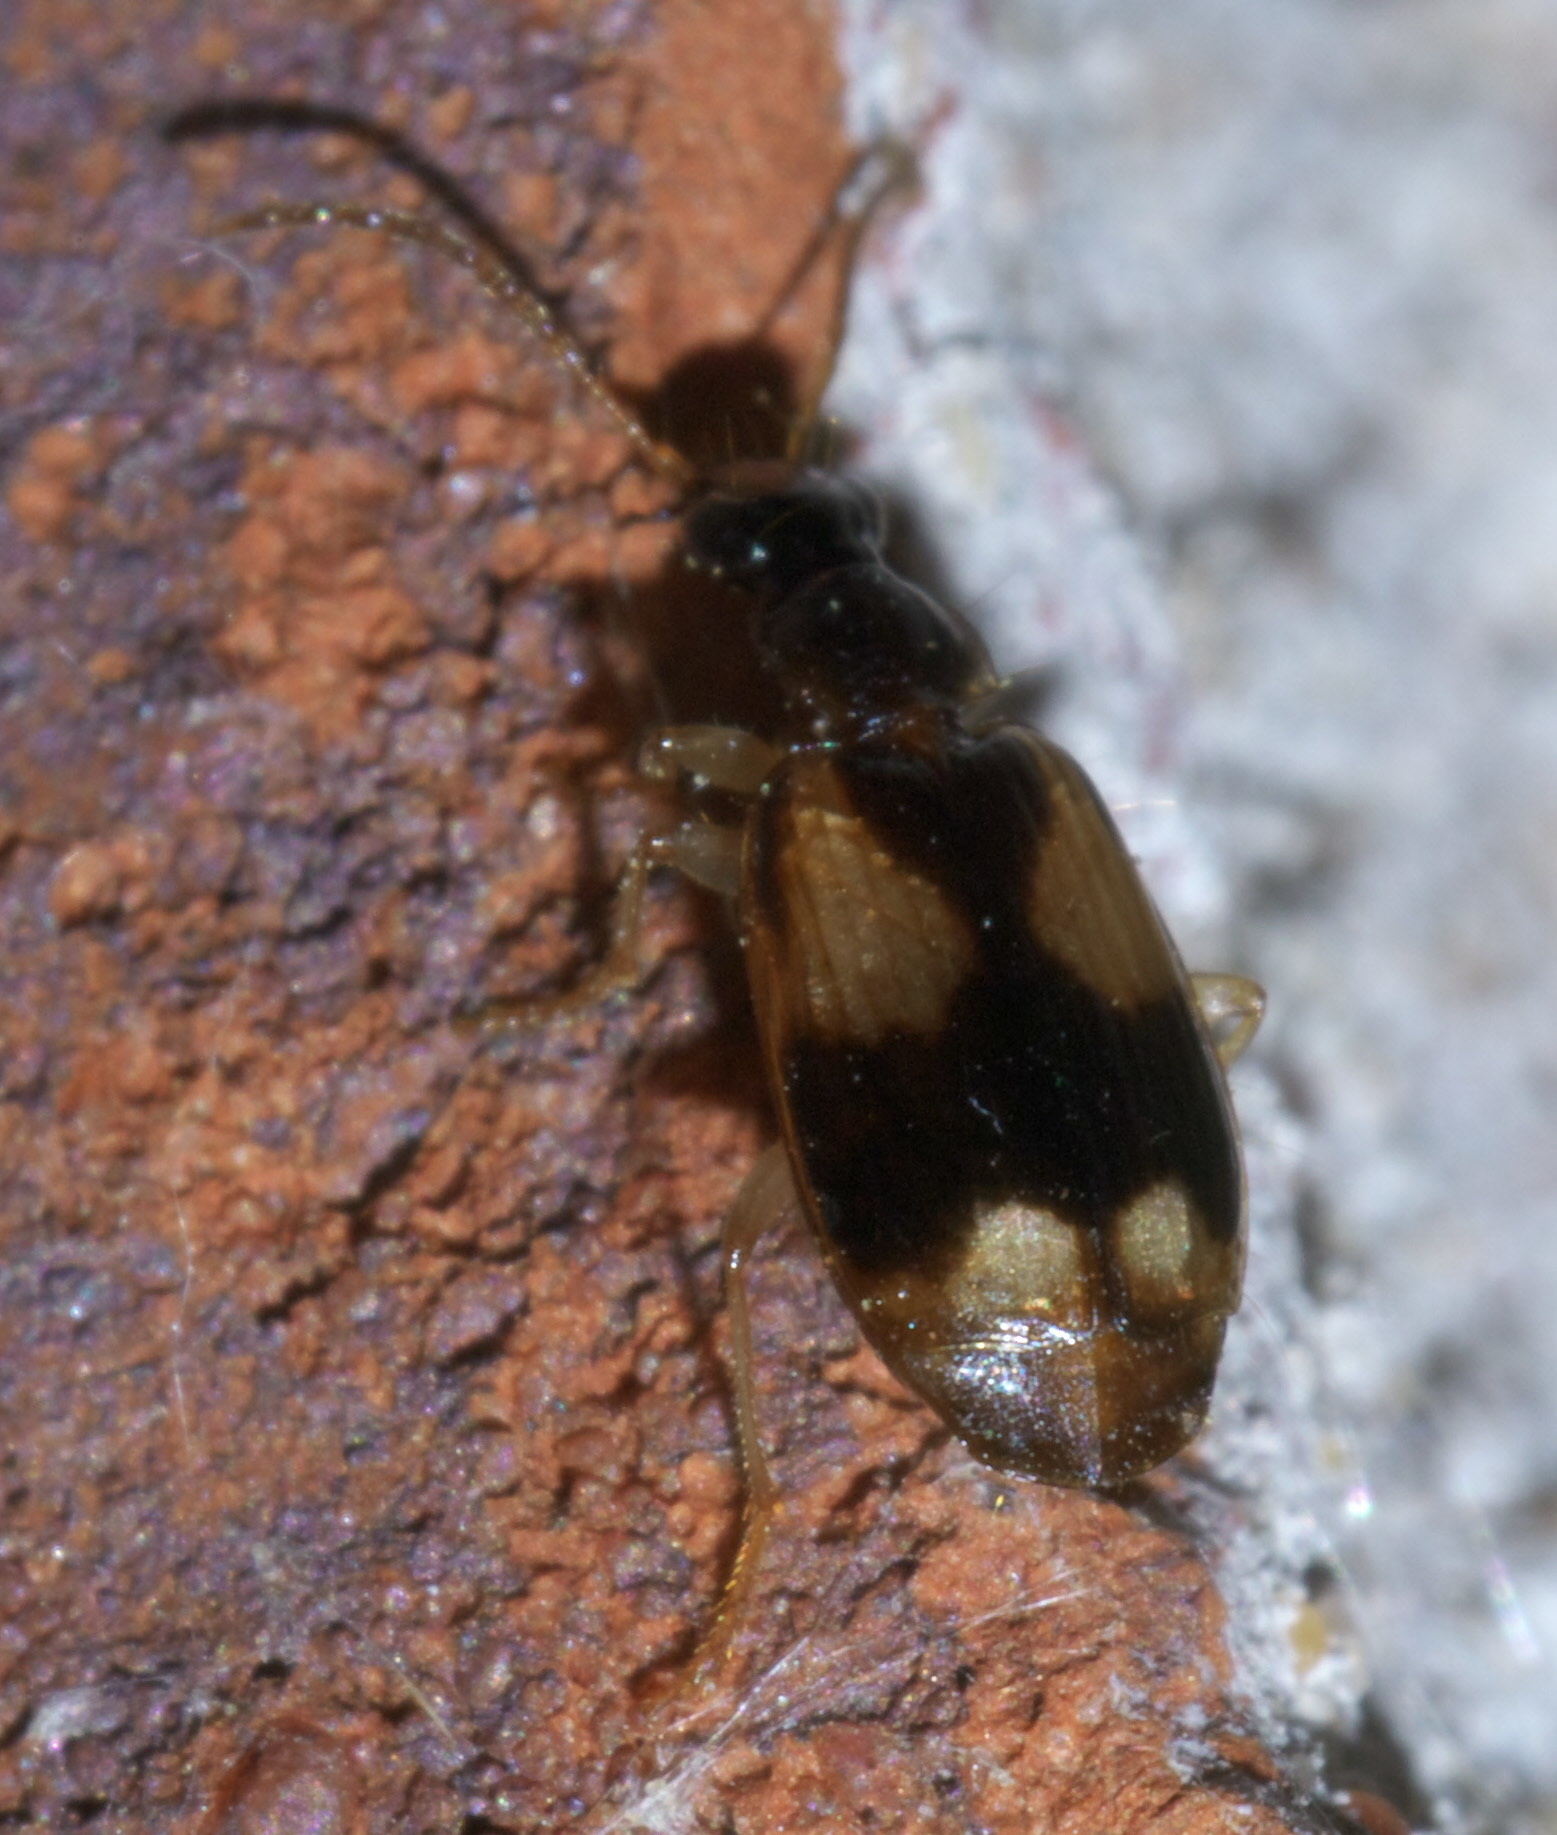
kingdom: Animalia
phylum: Arthropoda
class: Insecta
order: Coleoptera
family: Carabidae
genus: Lebia
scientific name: Lebia ornata
